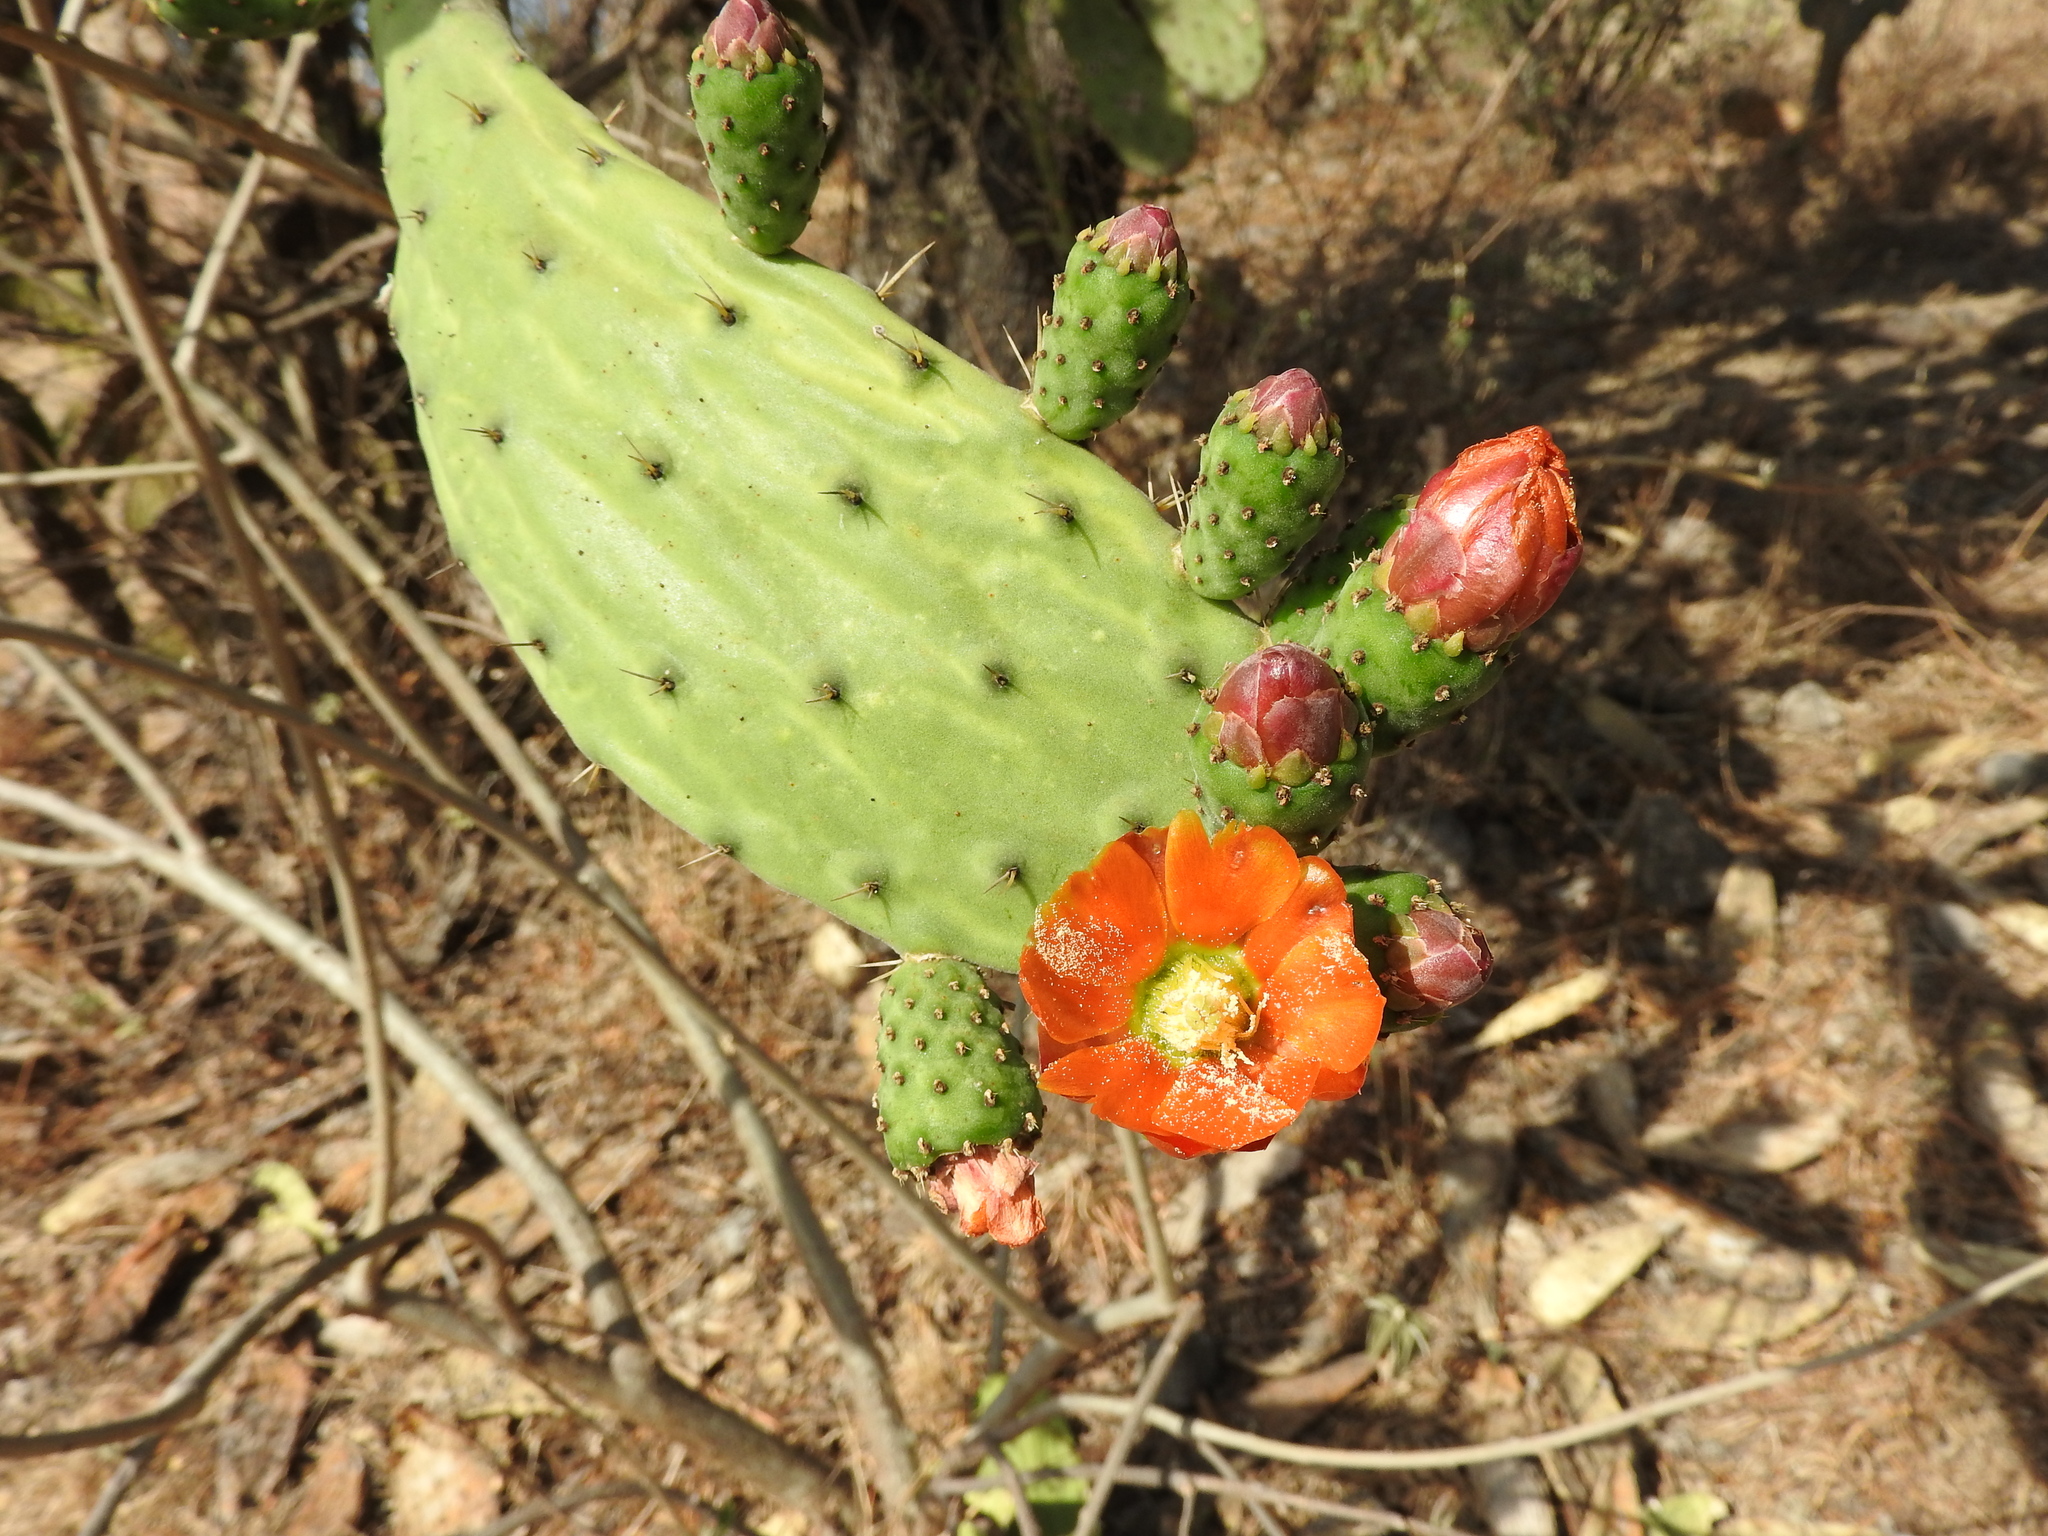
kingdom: Plantae
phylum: Tracheophyta
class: Magnoliopsida
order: Caryophyllales
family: Cactaceae
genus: Opuntia
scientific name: Opuntia lasiacantha
